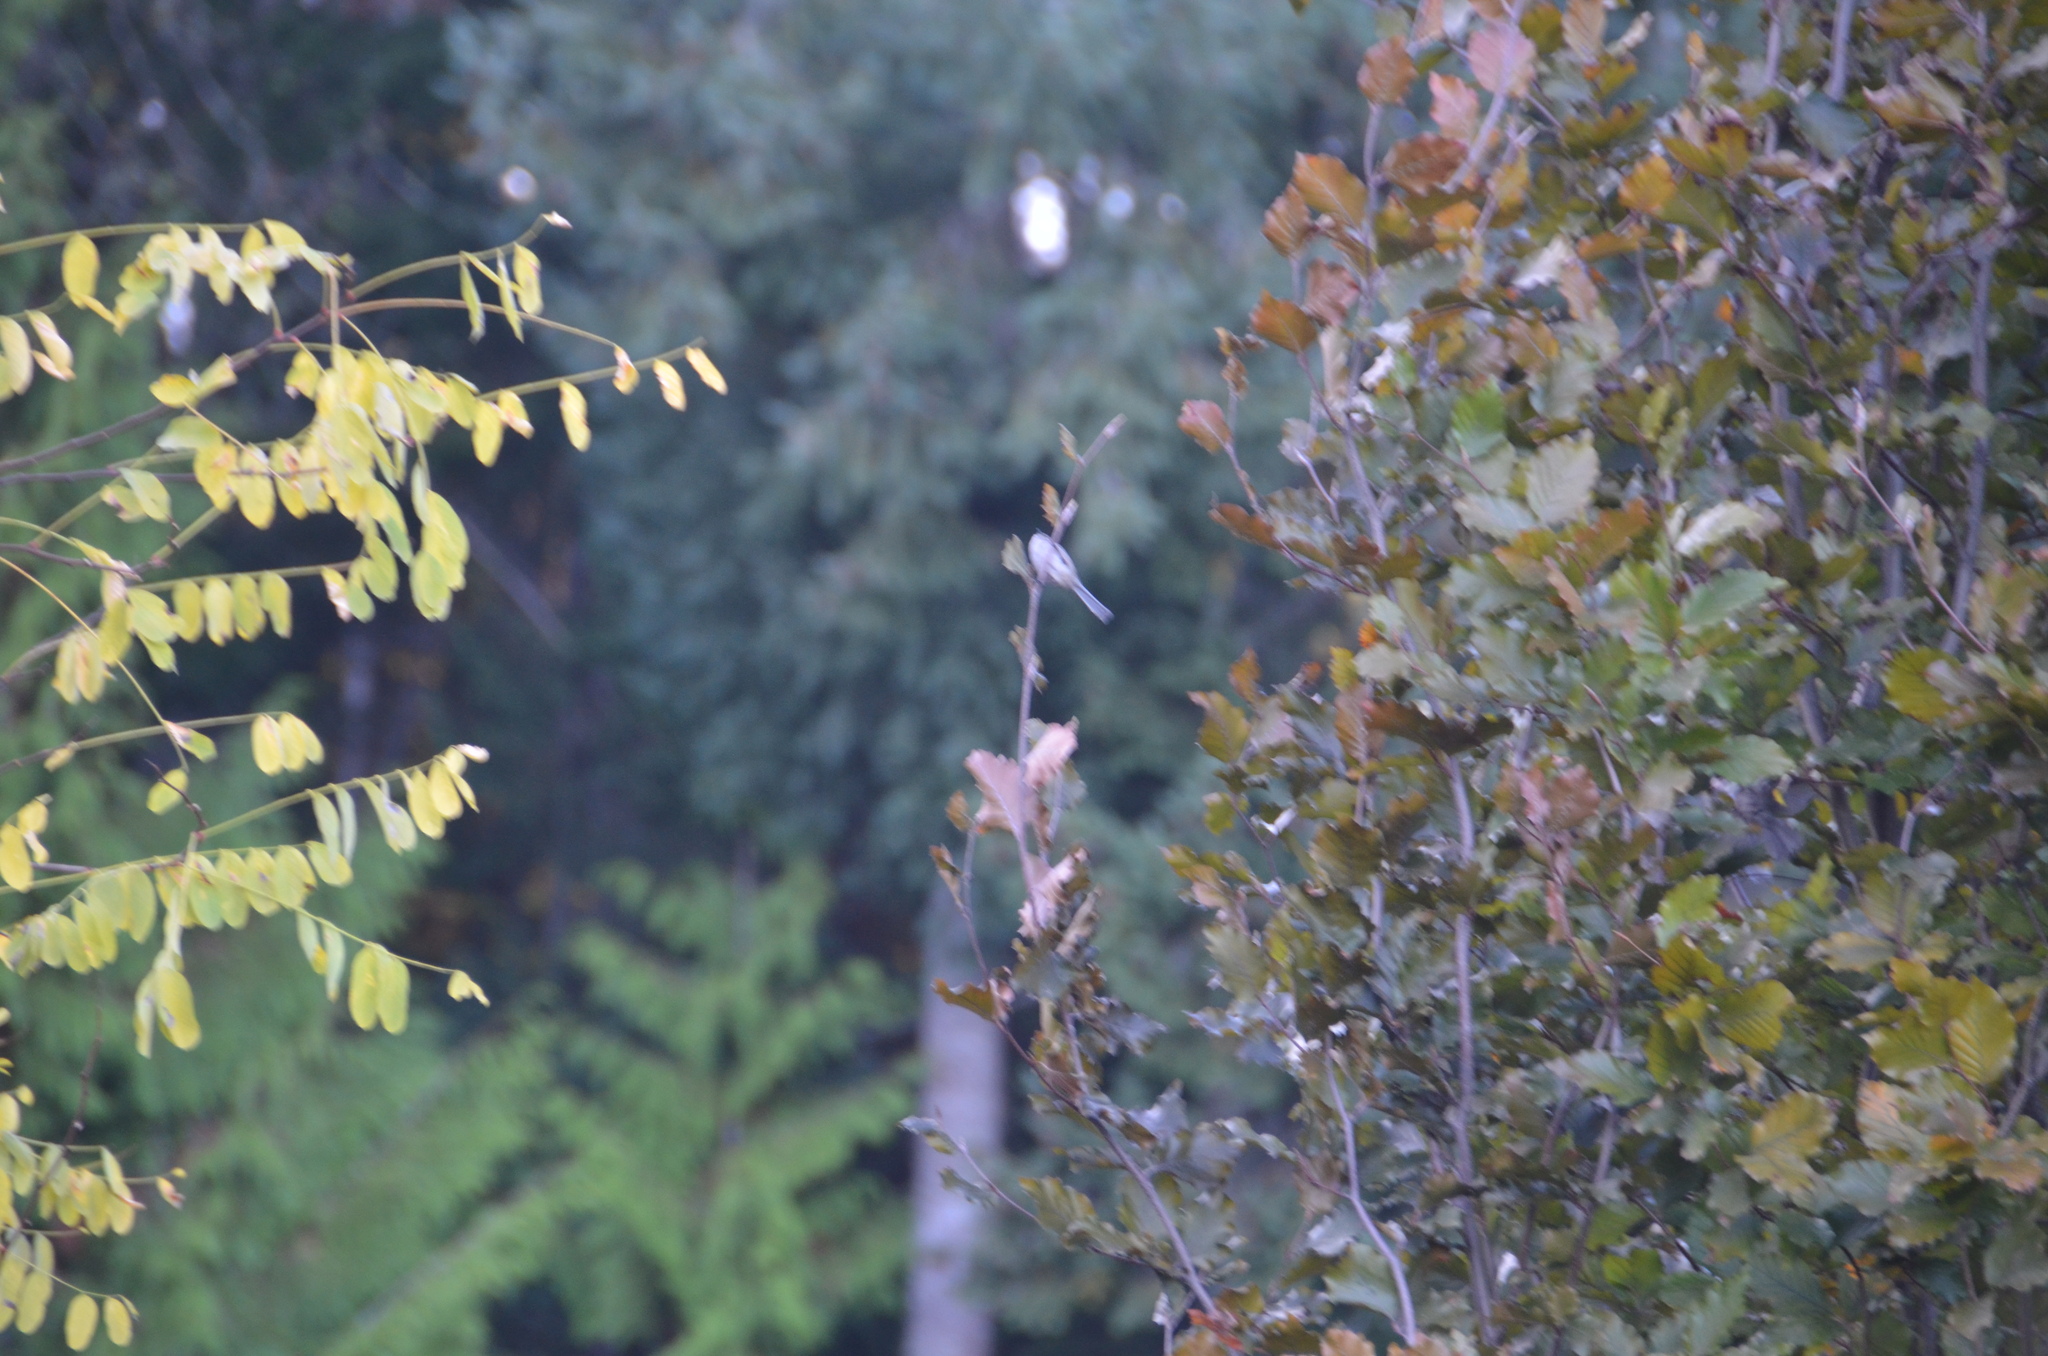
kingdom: Animalia
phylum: Chordata
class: Aves
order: Passeriformes
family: Aegithalidae
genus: Psaltriparus
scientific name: Psaltriparus minimus
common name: American bushtit
